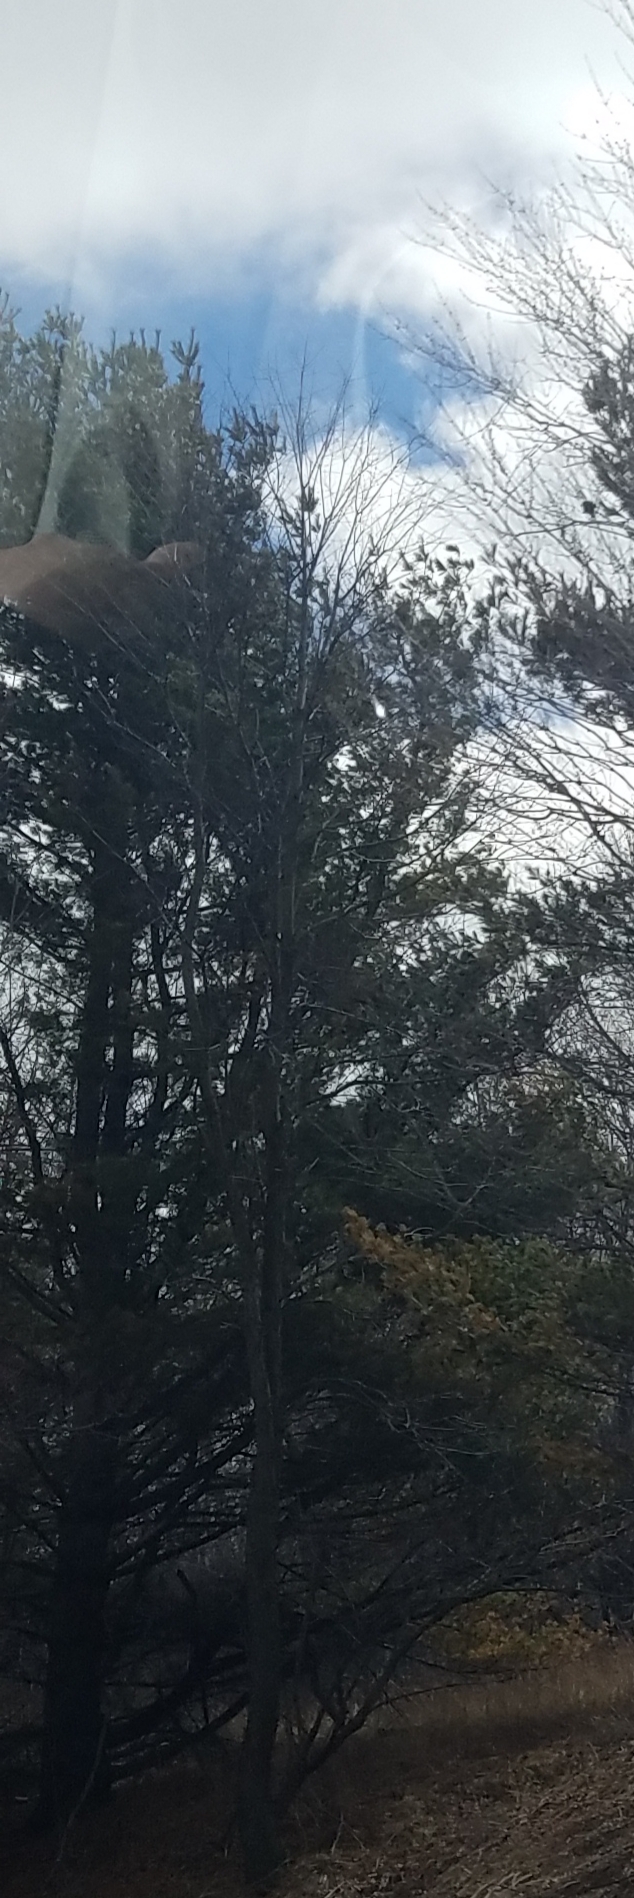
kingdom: Plantae
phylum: Tracheophyta
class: Pinopsida
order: Pinales
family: Pinaceae
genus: Pinus
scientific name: Pinus strobus
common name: Weymouth pine
